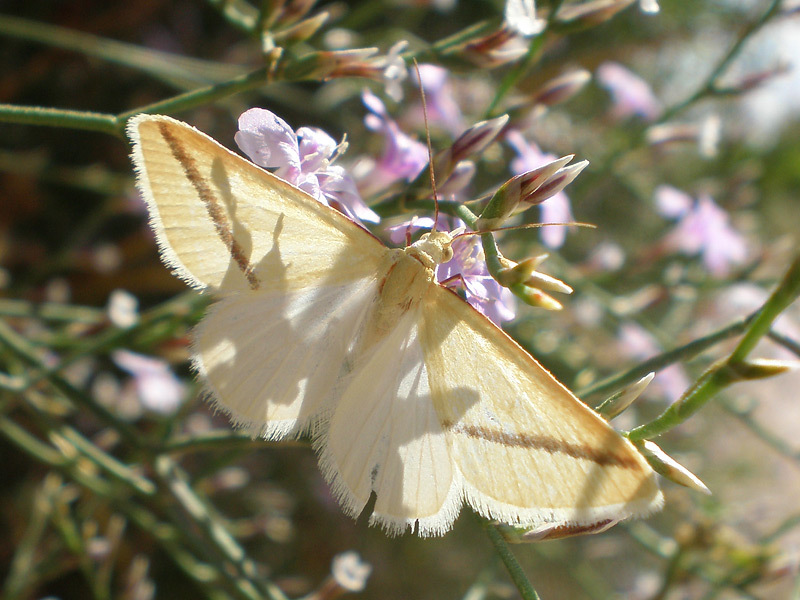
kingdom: Animalia
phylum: Arthropoda
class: Insecta
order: Lepidoptera
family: Geometridae
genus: Rhodometra
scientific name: Rhodometra sacraria
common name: Vestal
